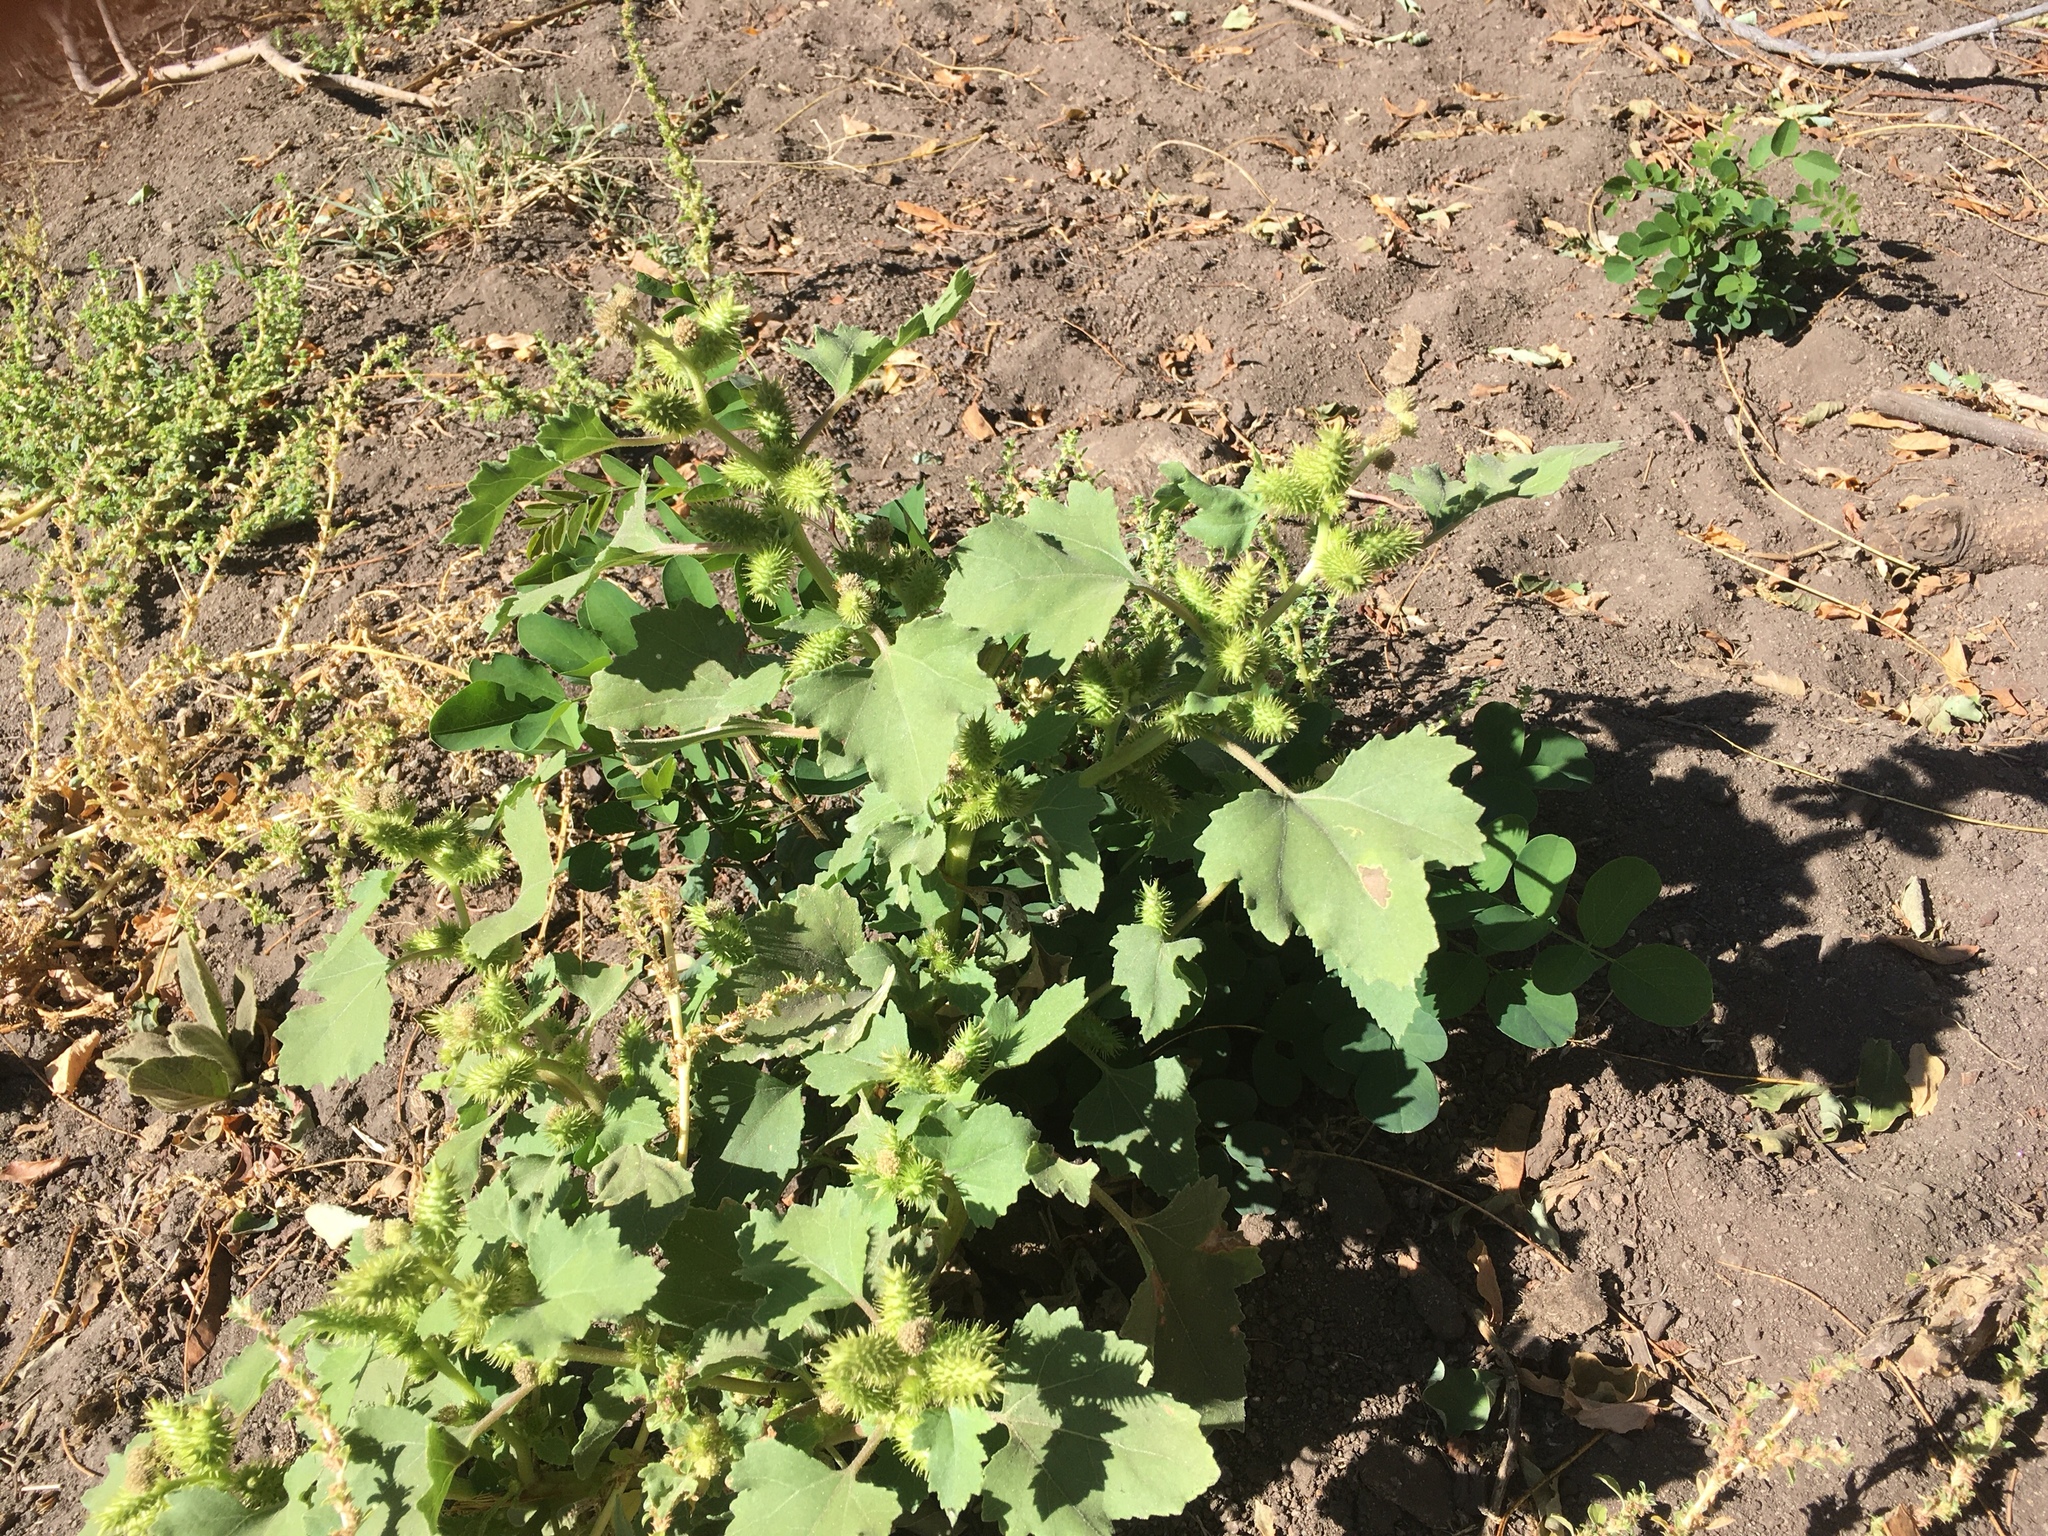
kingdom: Plantae
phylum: Tracheophyta
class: Magnoliopsida
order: Asterales
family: Asteraceae
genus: Xanthium
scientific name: Xanthium strumarium
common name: Rough cocklebur
